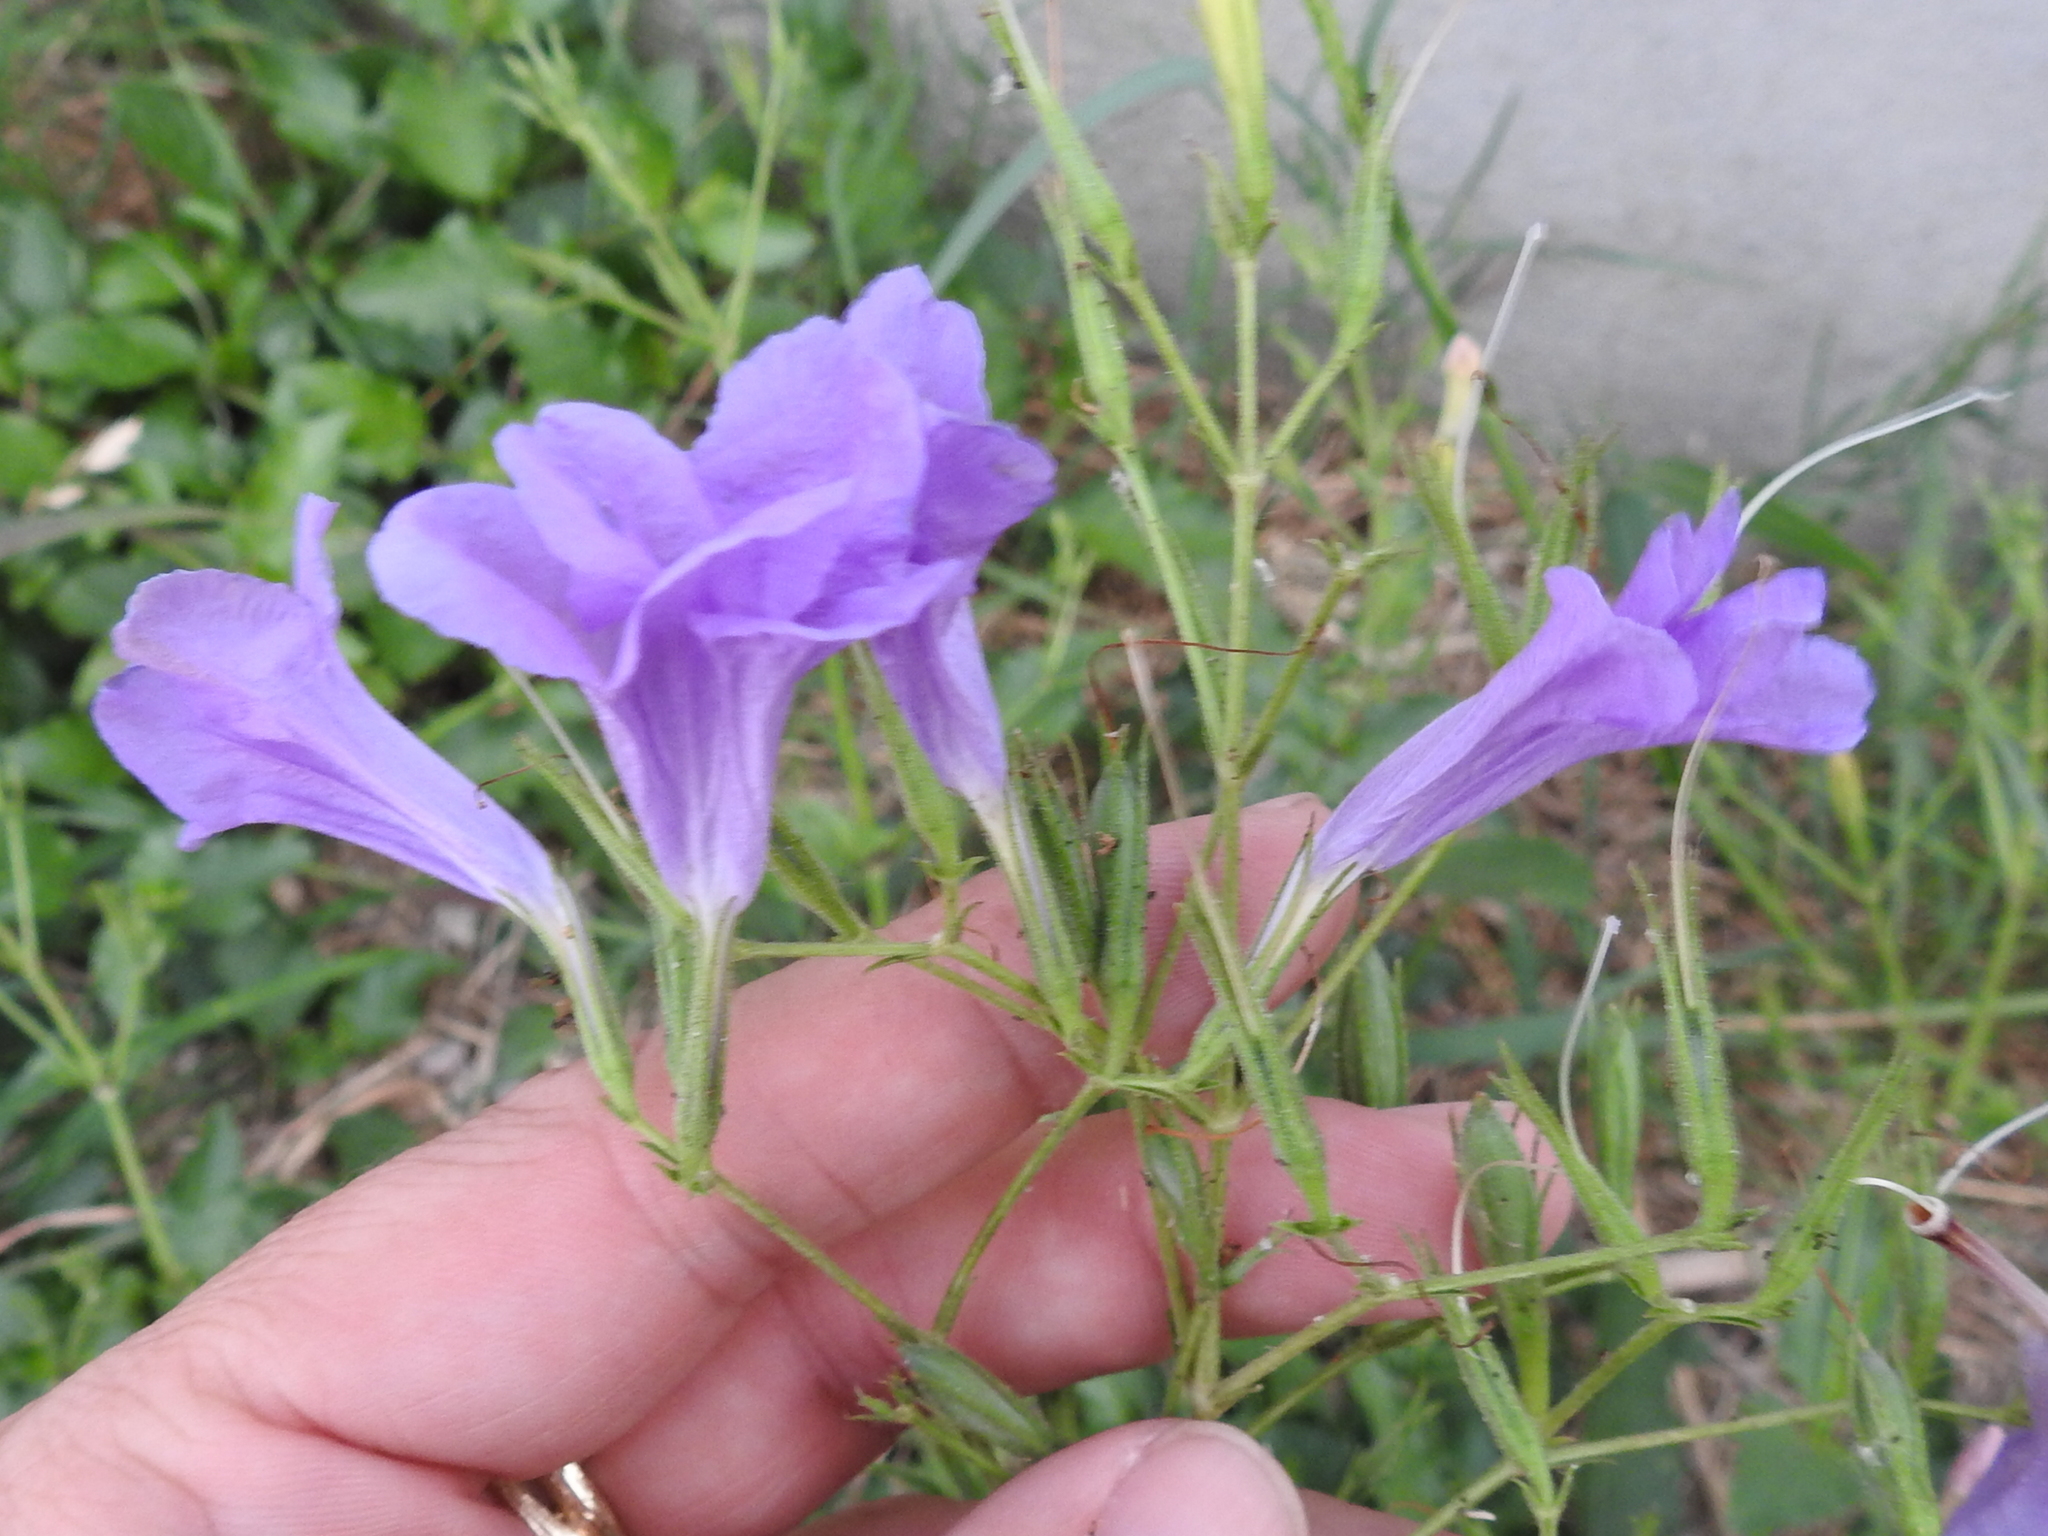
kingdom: Plantae
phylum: Tracheophyta
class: Magnoliopsida
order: Lamiales
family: Acanthaceae
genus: Ruellia
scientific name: Ruellia ciliatiflora
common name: Hairyflower wild petunia
